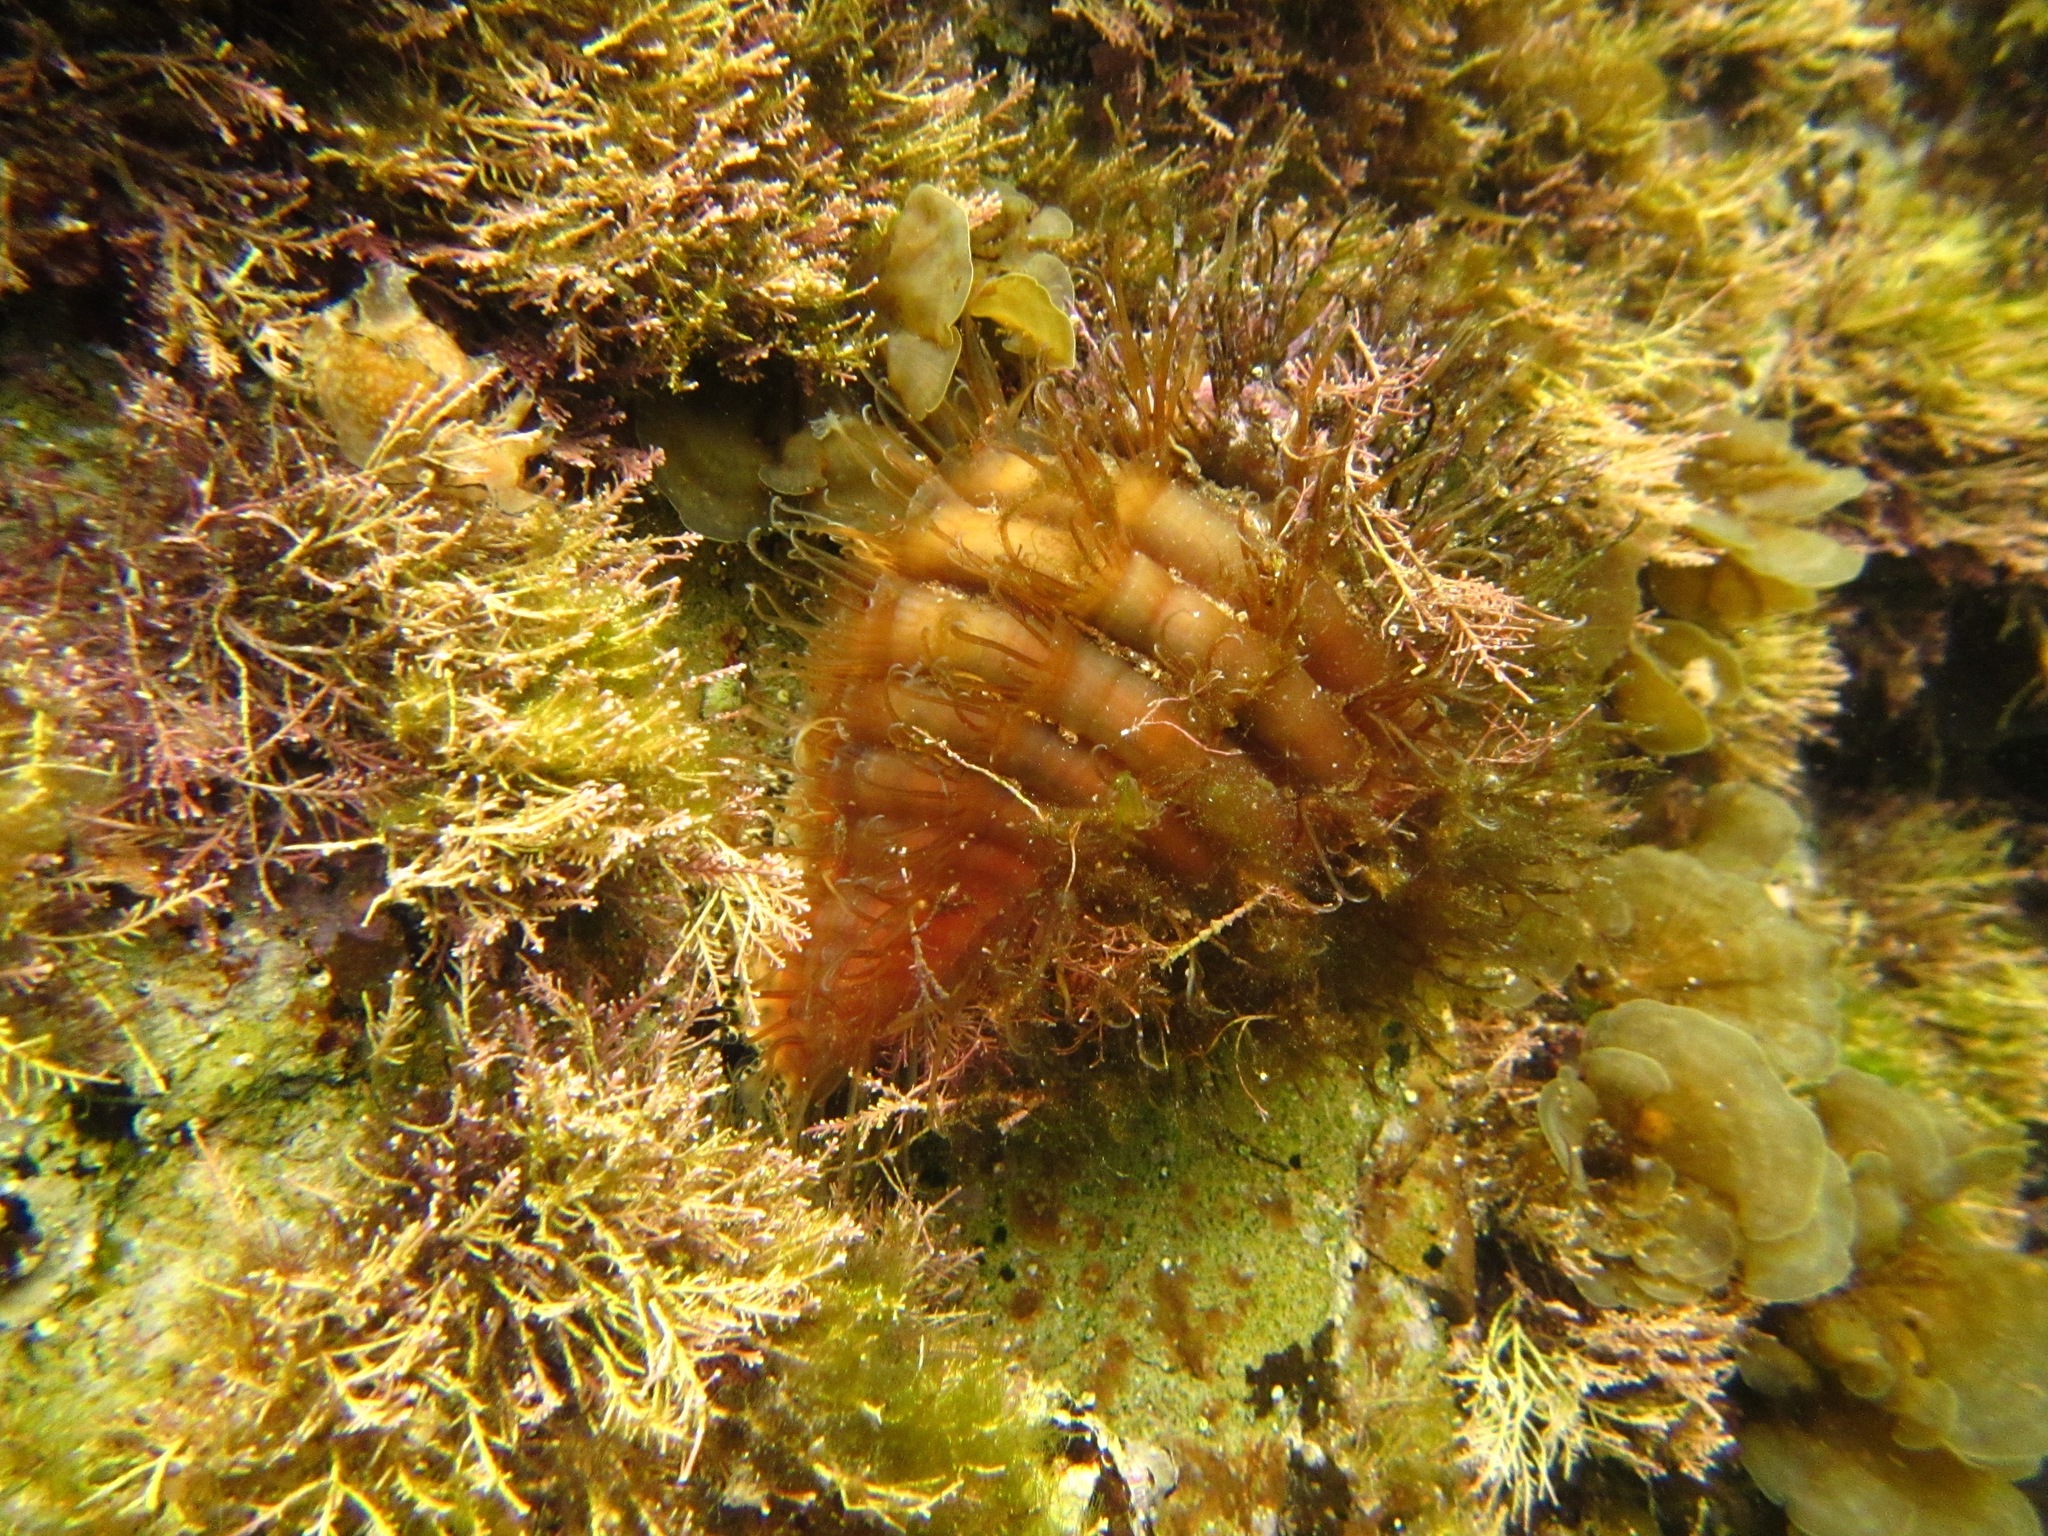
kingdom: Animalia
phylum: Mollusca
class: Gastropoda
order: Littorinimorpha
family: Cymatiidae
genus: Monoplex
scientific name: Monoplex parthenopeus
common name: Giant triton
